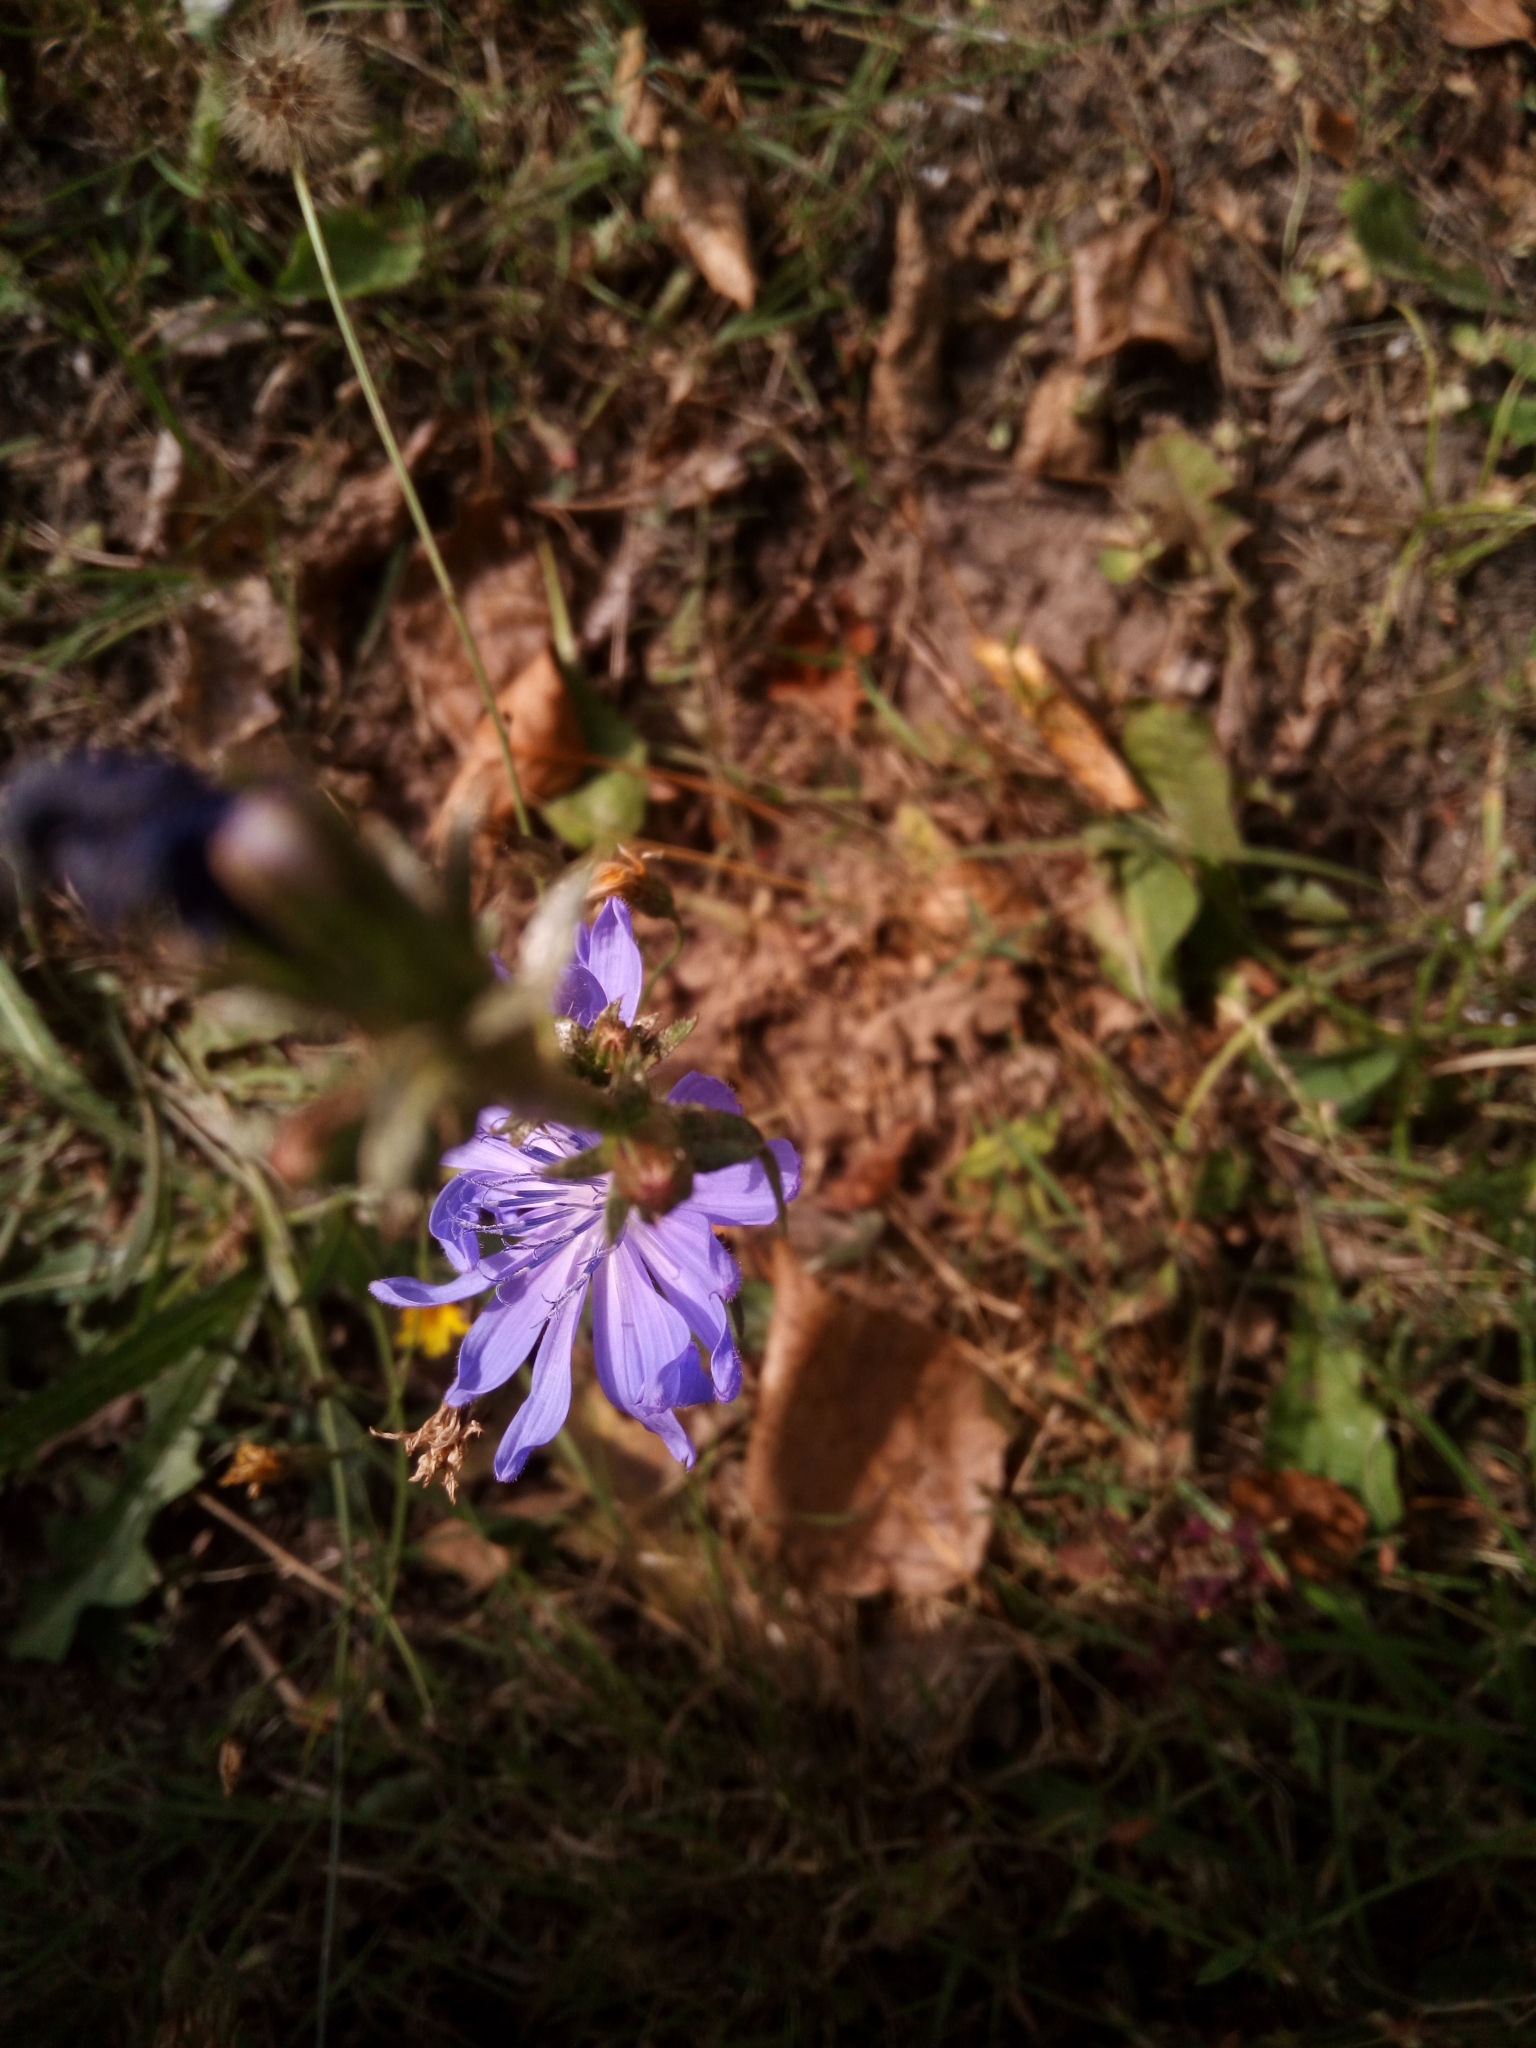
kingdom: Plantae
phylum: Tracheophyta
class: Magnoliopsida
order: Asterales
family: Asteraceae
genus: Cichorium
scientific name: Cichorium intybus
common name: Chicory
